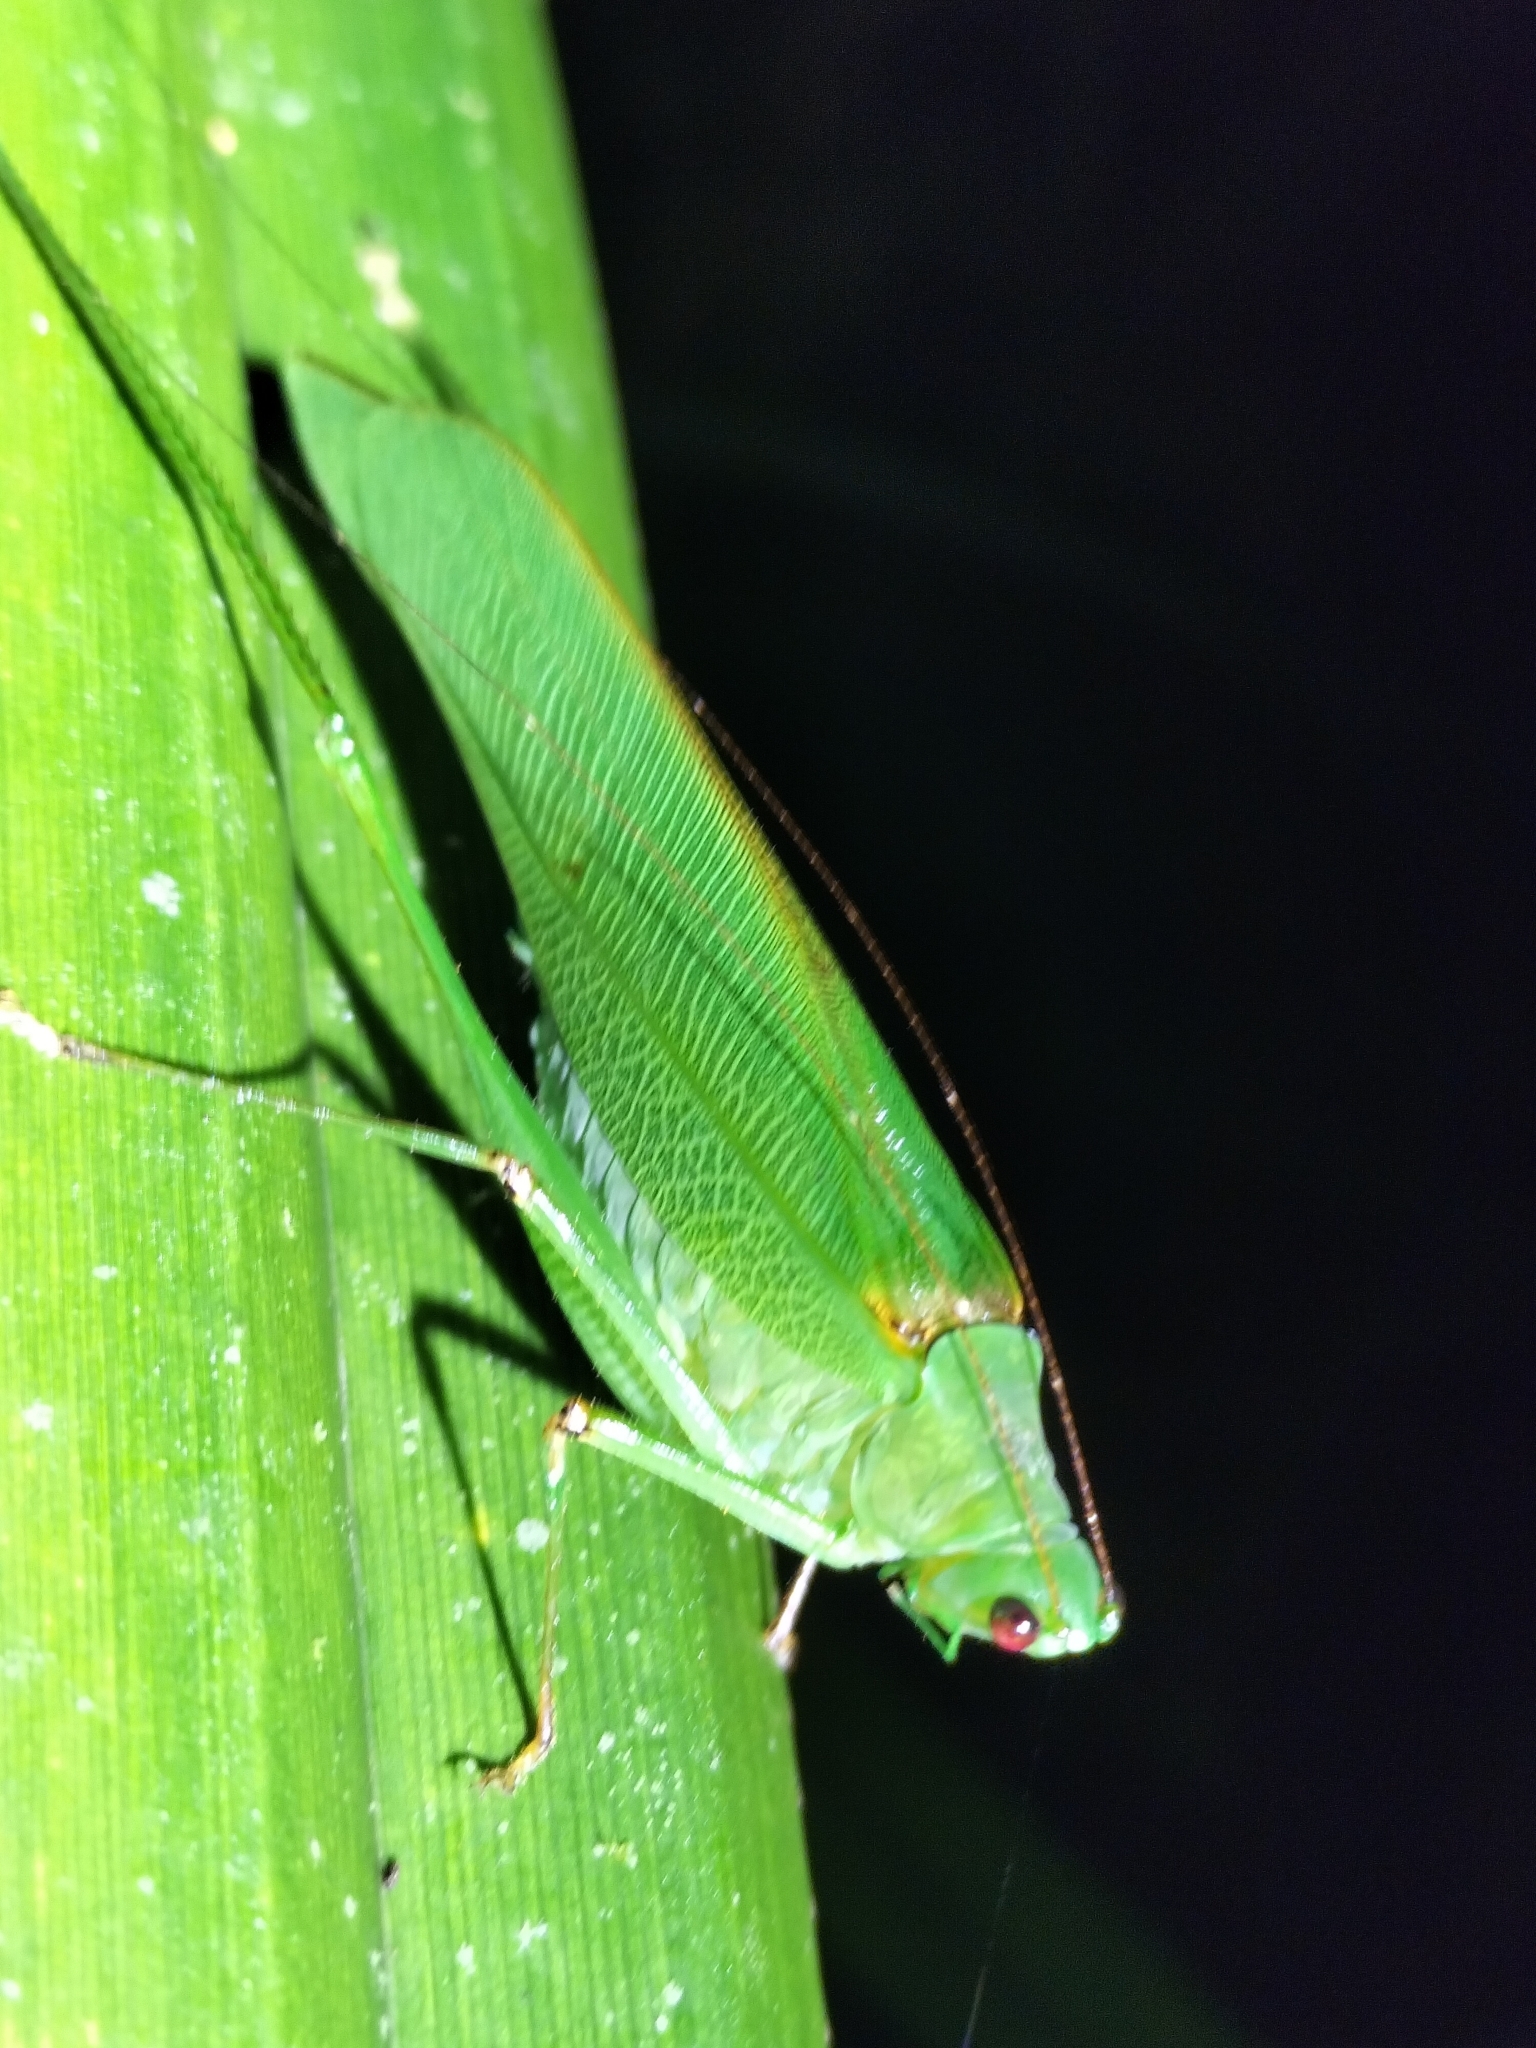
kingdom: Animalia
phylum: Arthropoda
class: Insecta
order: Orthoptera
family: Tettigoniidae
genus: Leucopodoptera
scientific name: Leucopodoptera eumundii
